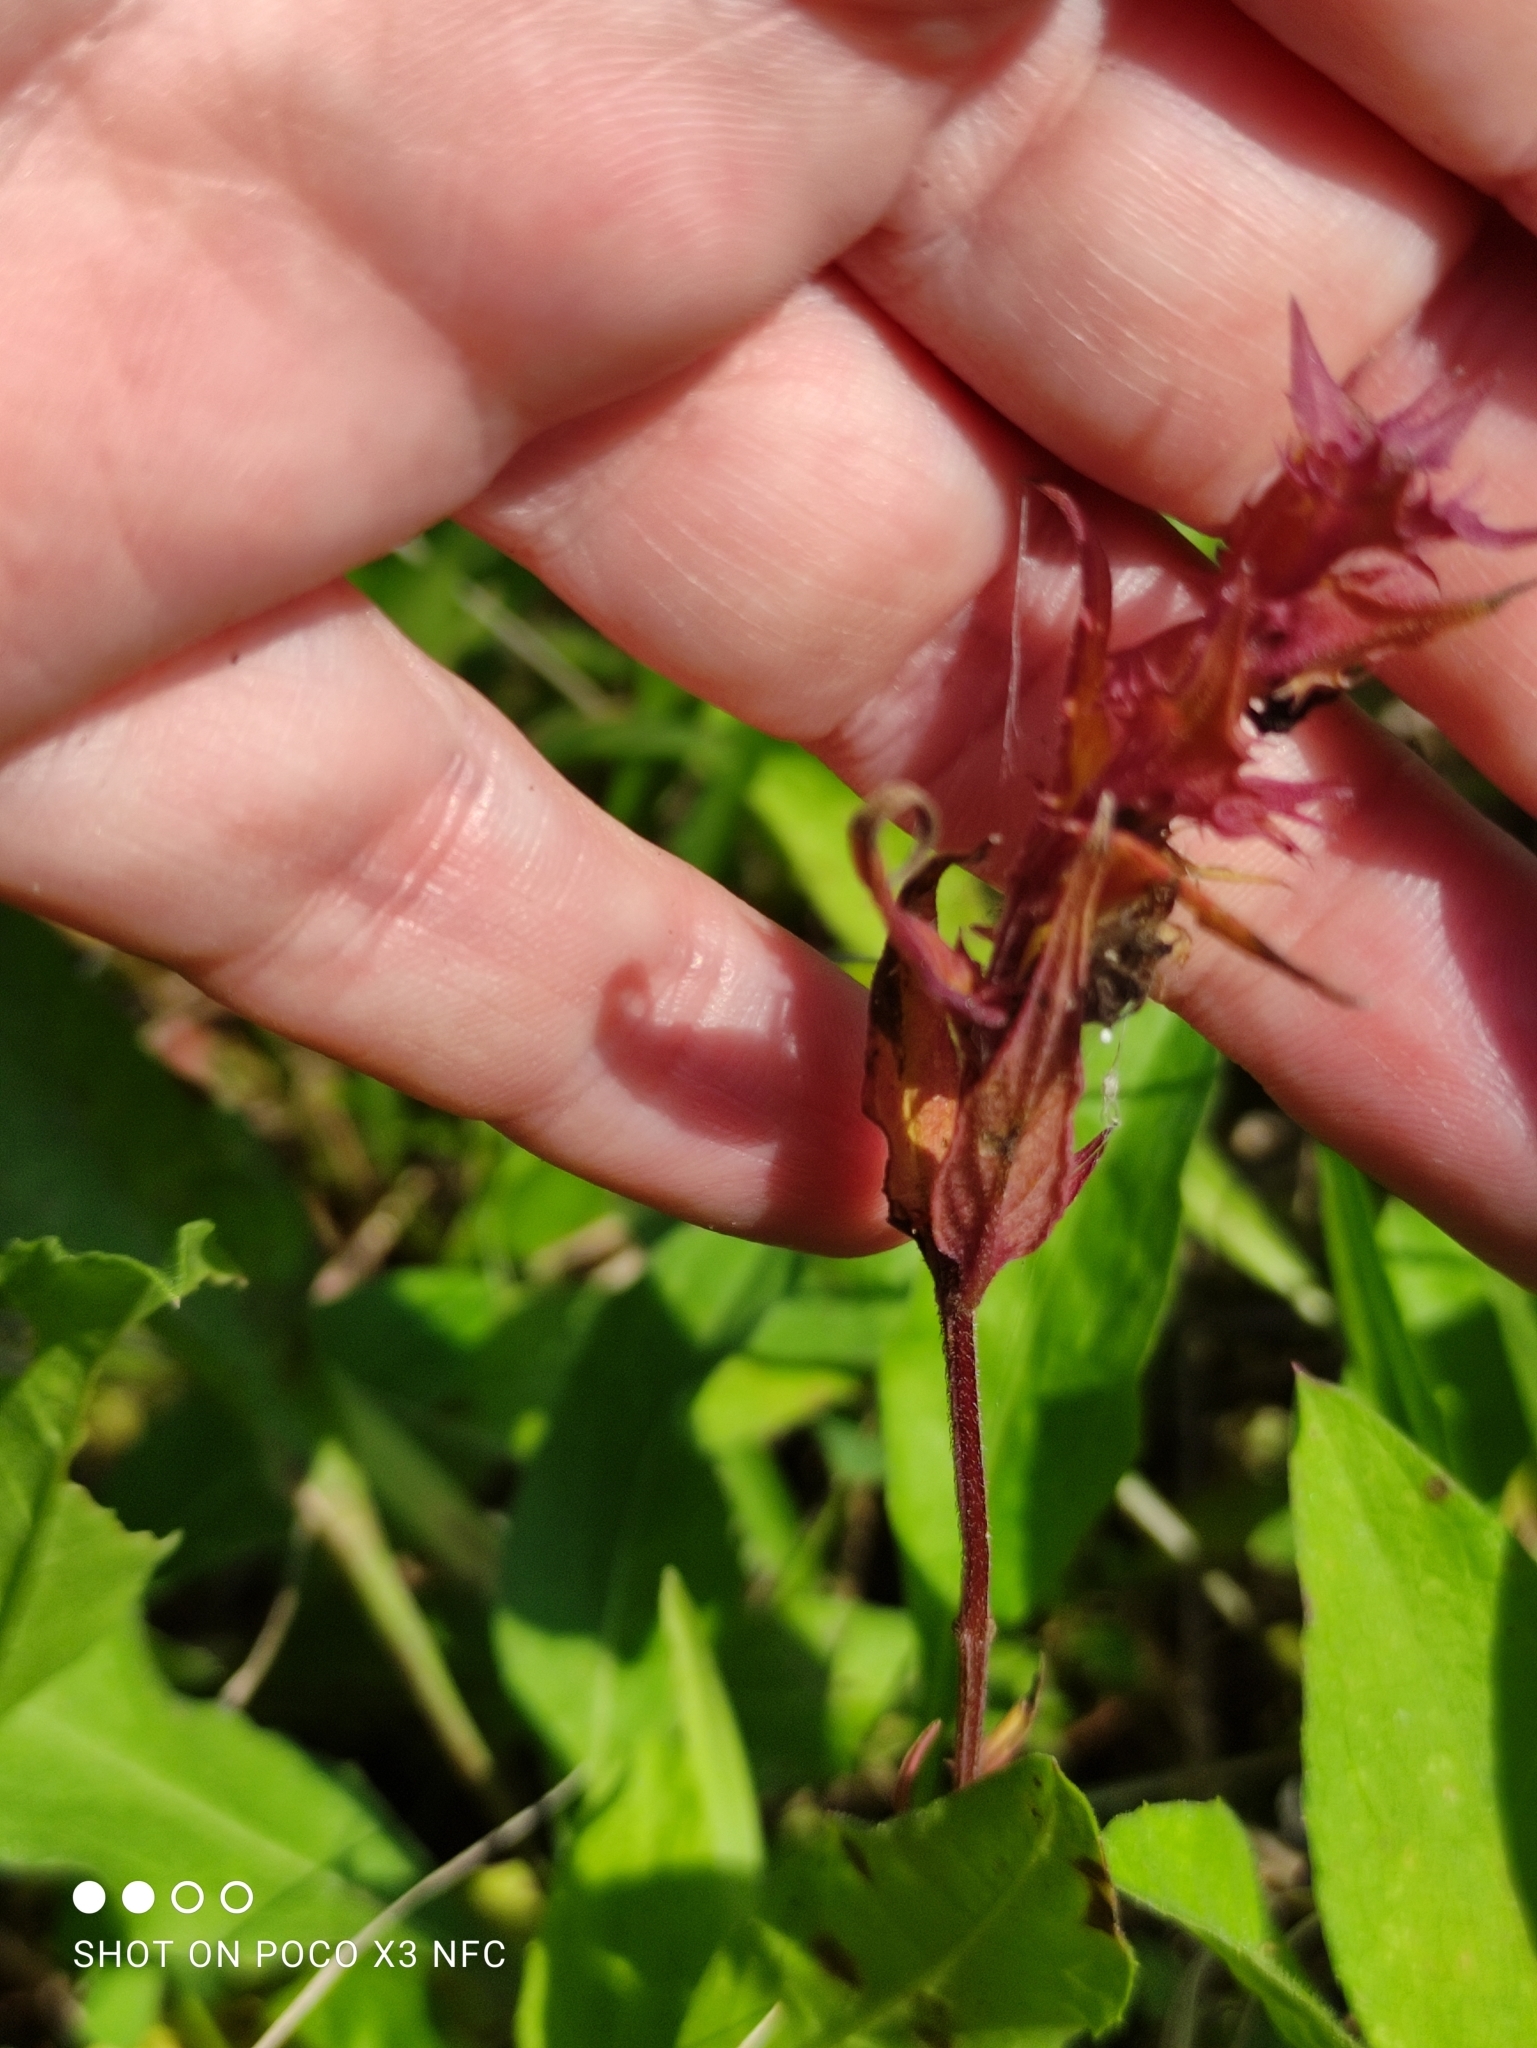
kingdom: Plantae
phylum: Tracheophyta
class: Magnoliopsida
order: Lamiales
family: Orobanchaceae
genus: Melampyrum
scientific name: Melampyrum nemorosum
